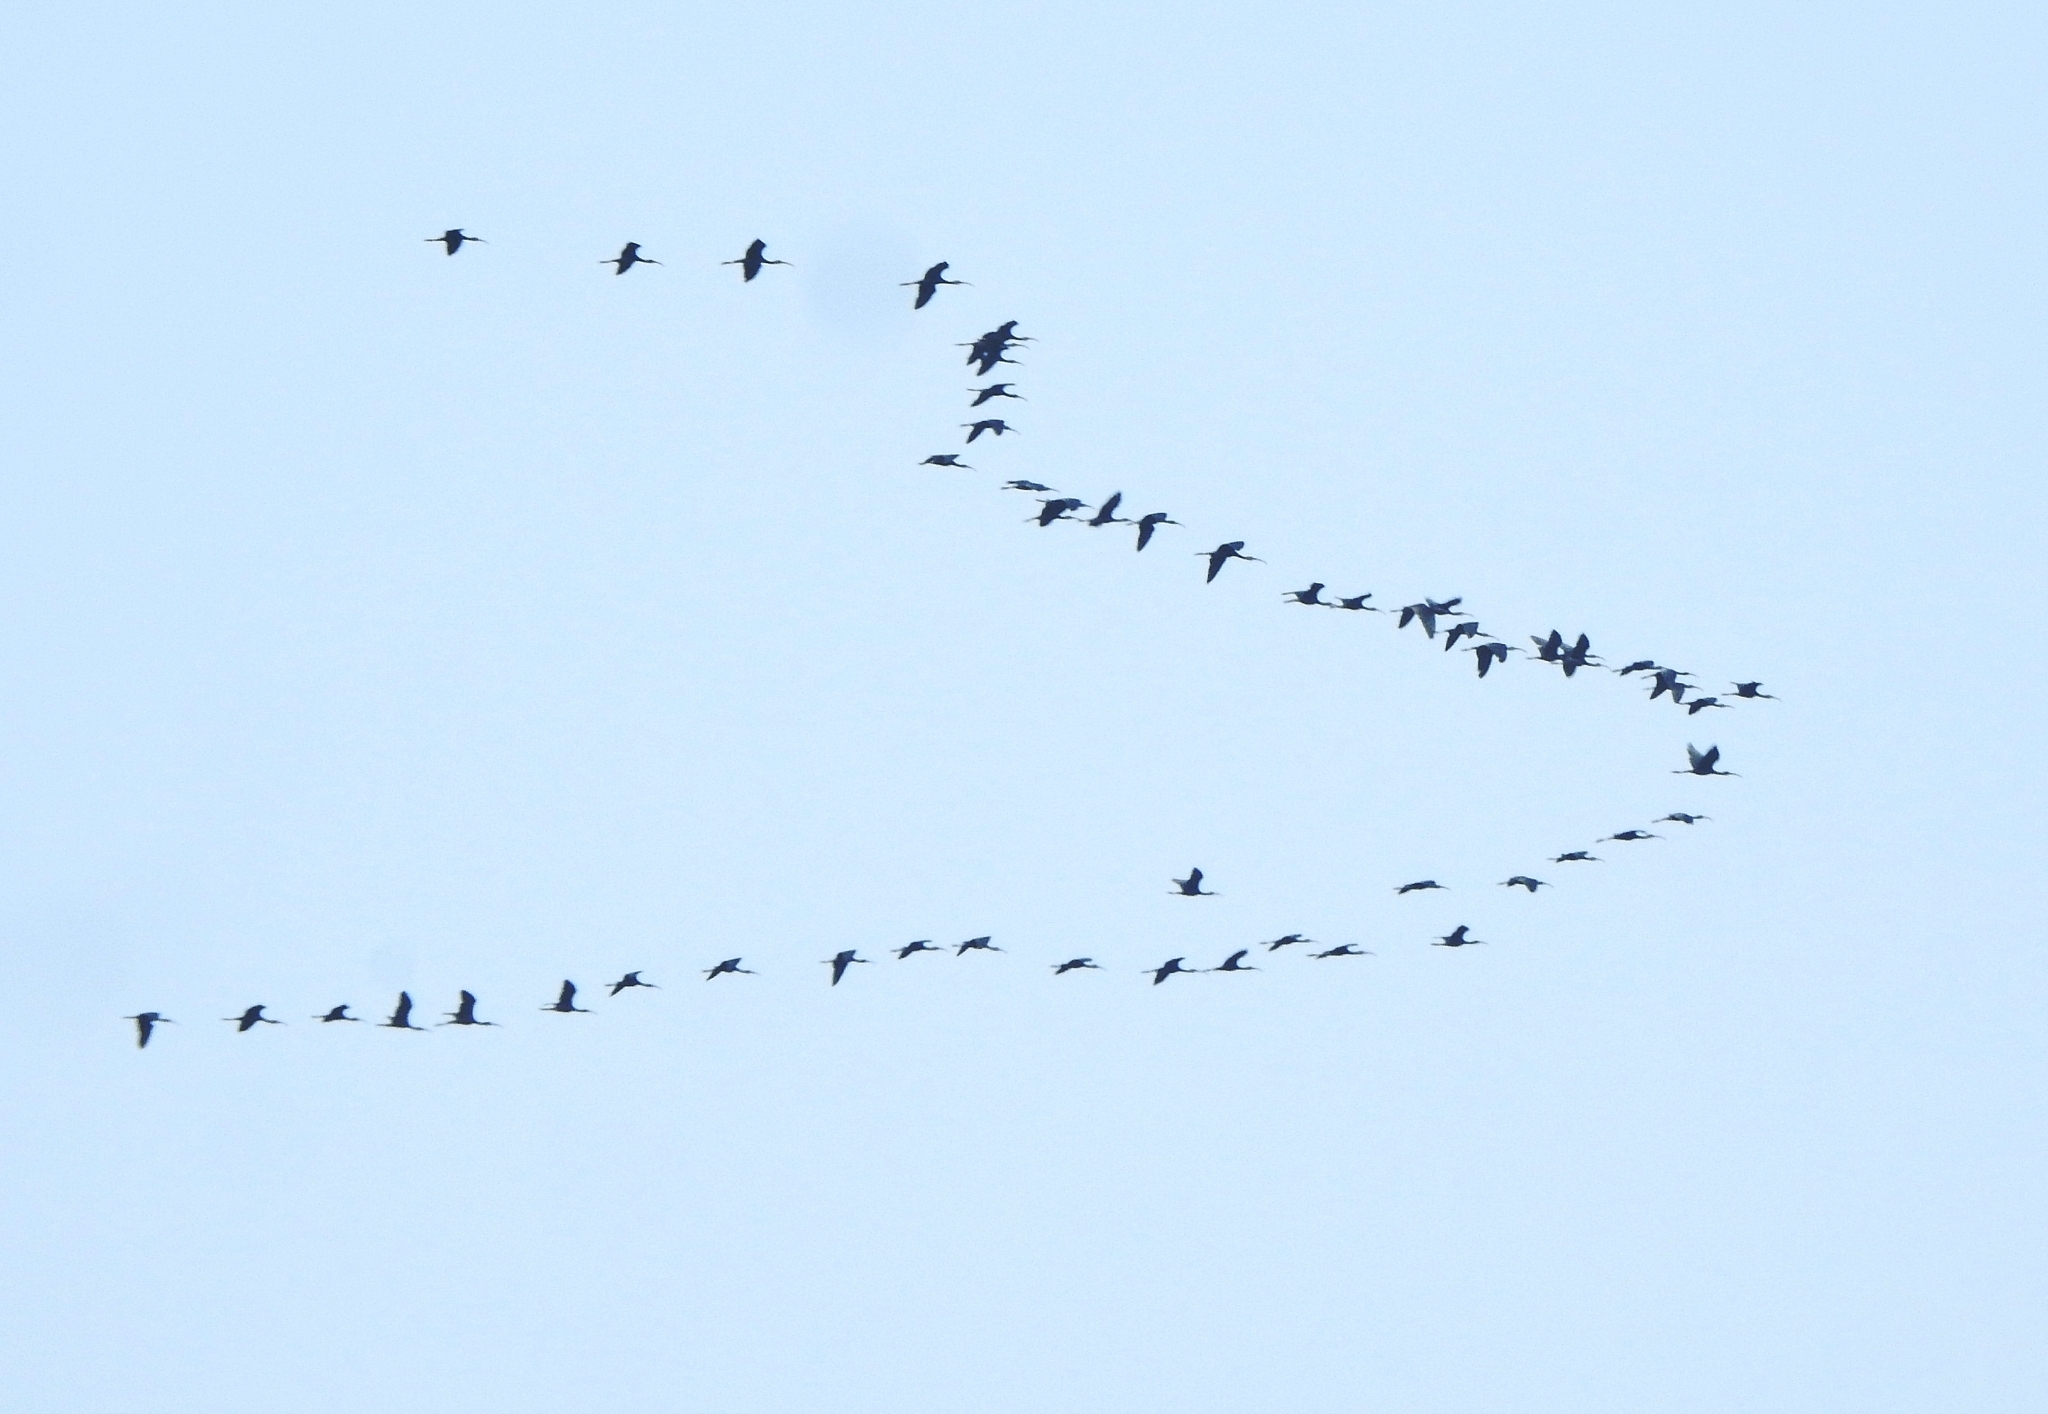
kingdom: Animalia
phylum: Chordata
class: Aves
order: Pelecaniformes
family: Threskiornithidae
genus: Plegadis
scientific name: Plegadis falcinellus
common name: Glossy ibis
